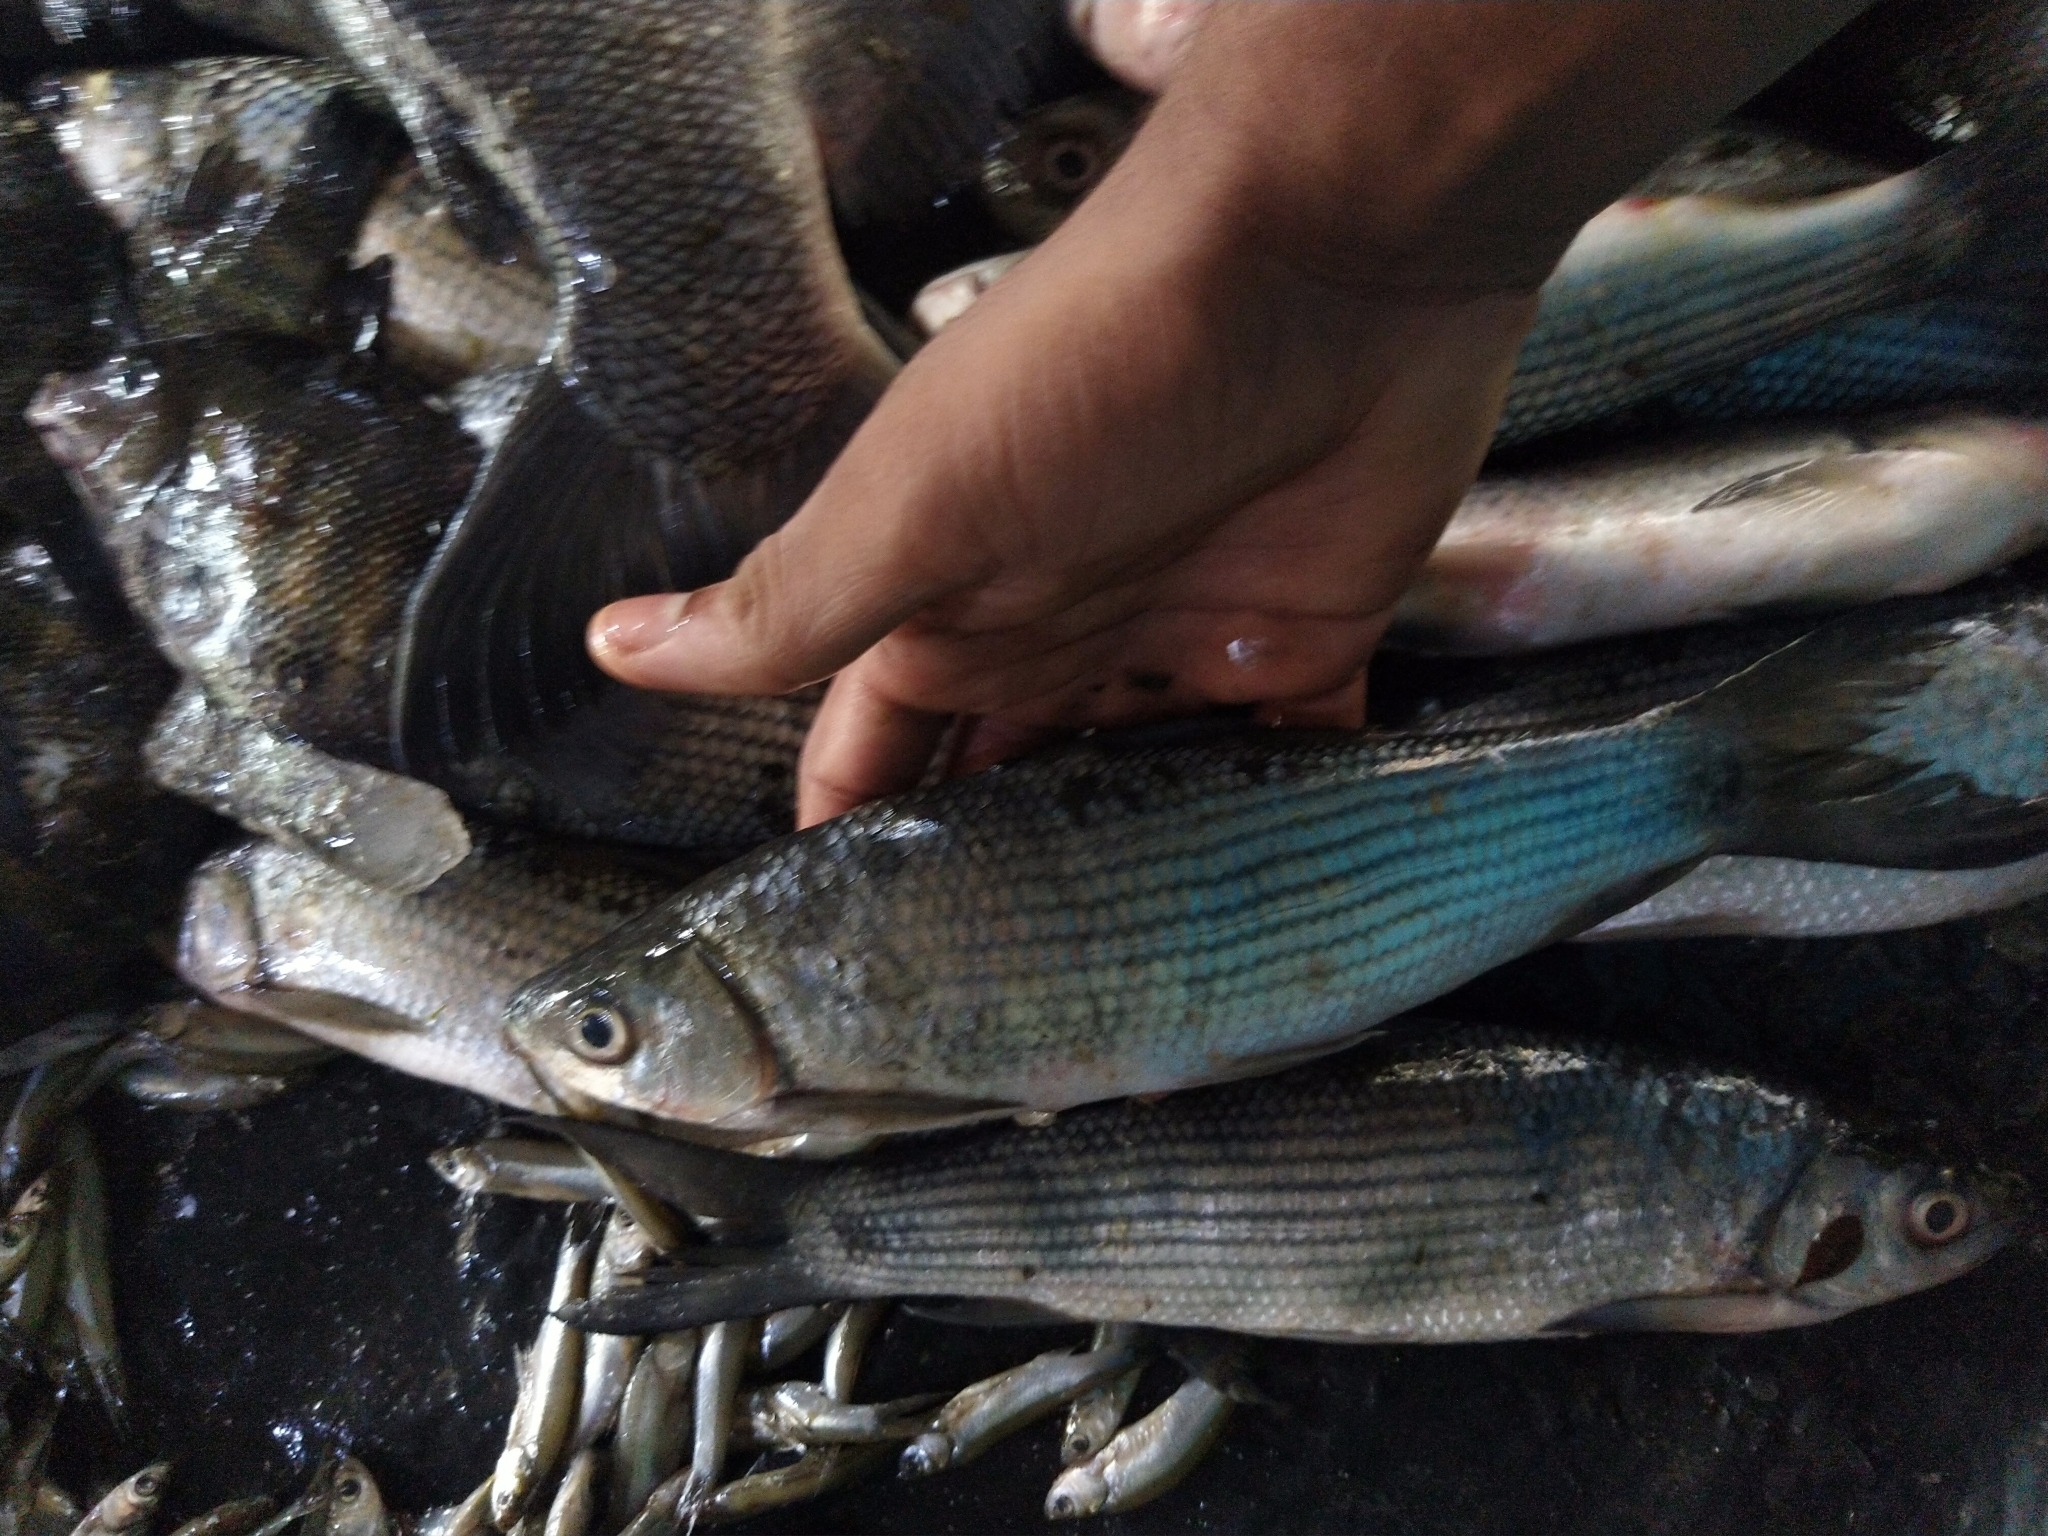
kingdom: Animalia
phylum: Chordata
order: Cypriniformes
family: Cyprinidae
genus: Labeo
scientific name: Labeo dussumieri
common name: Malabar labeo
